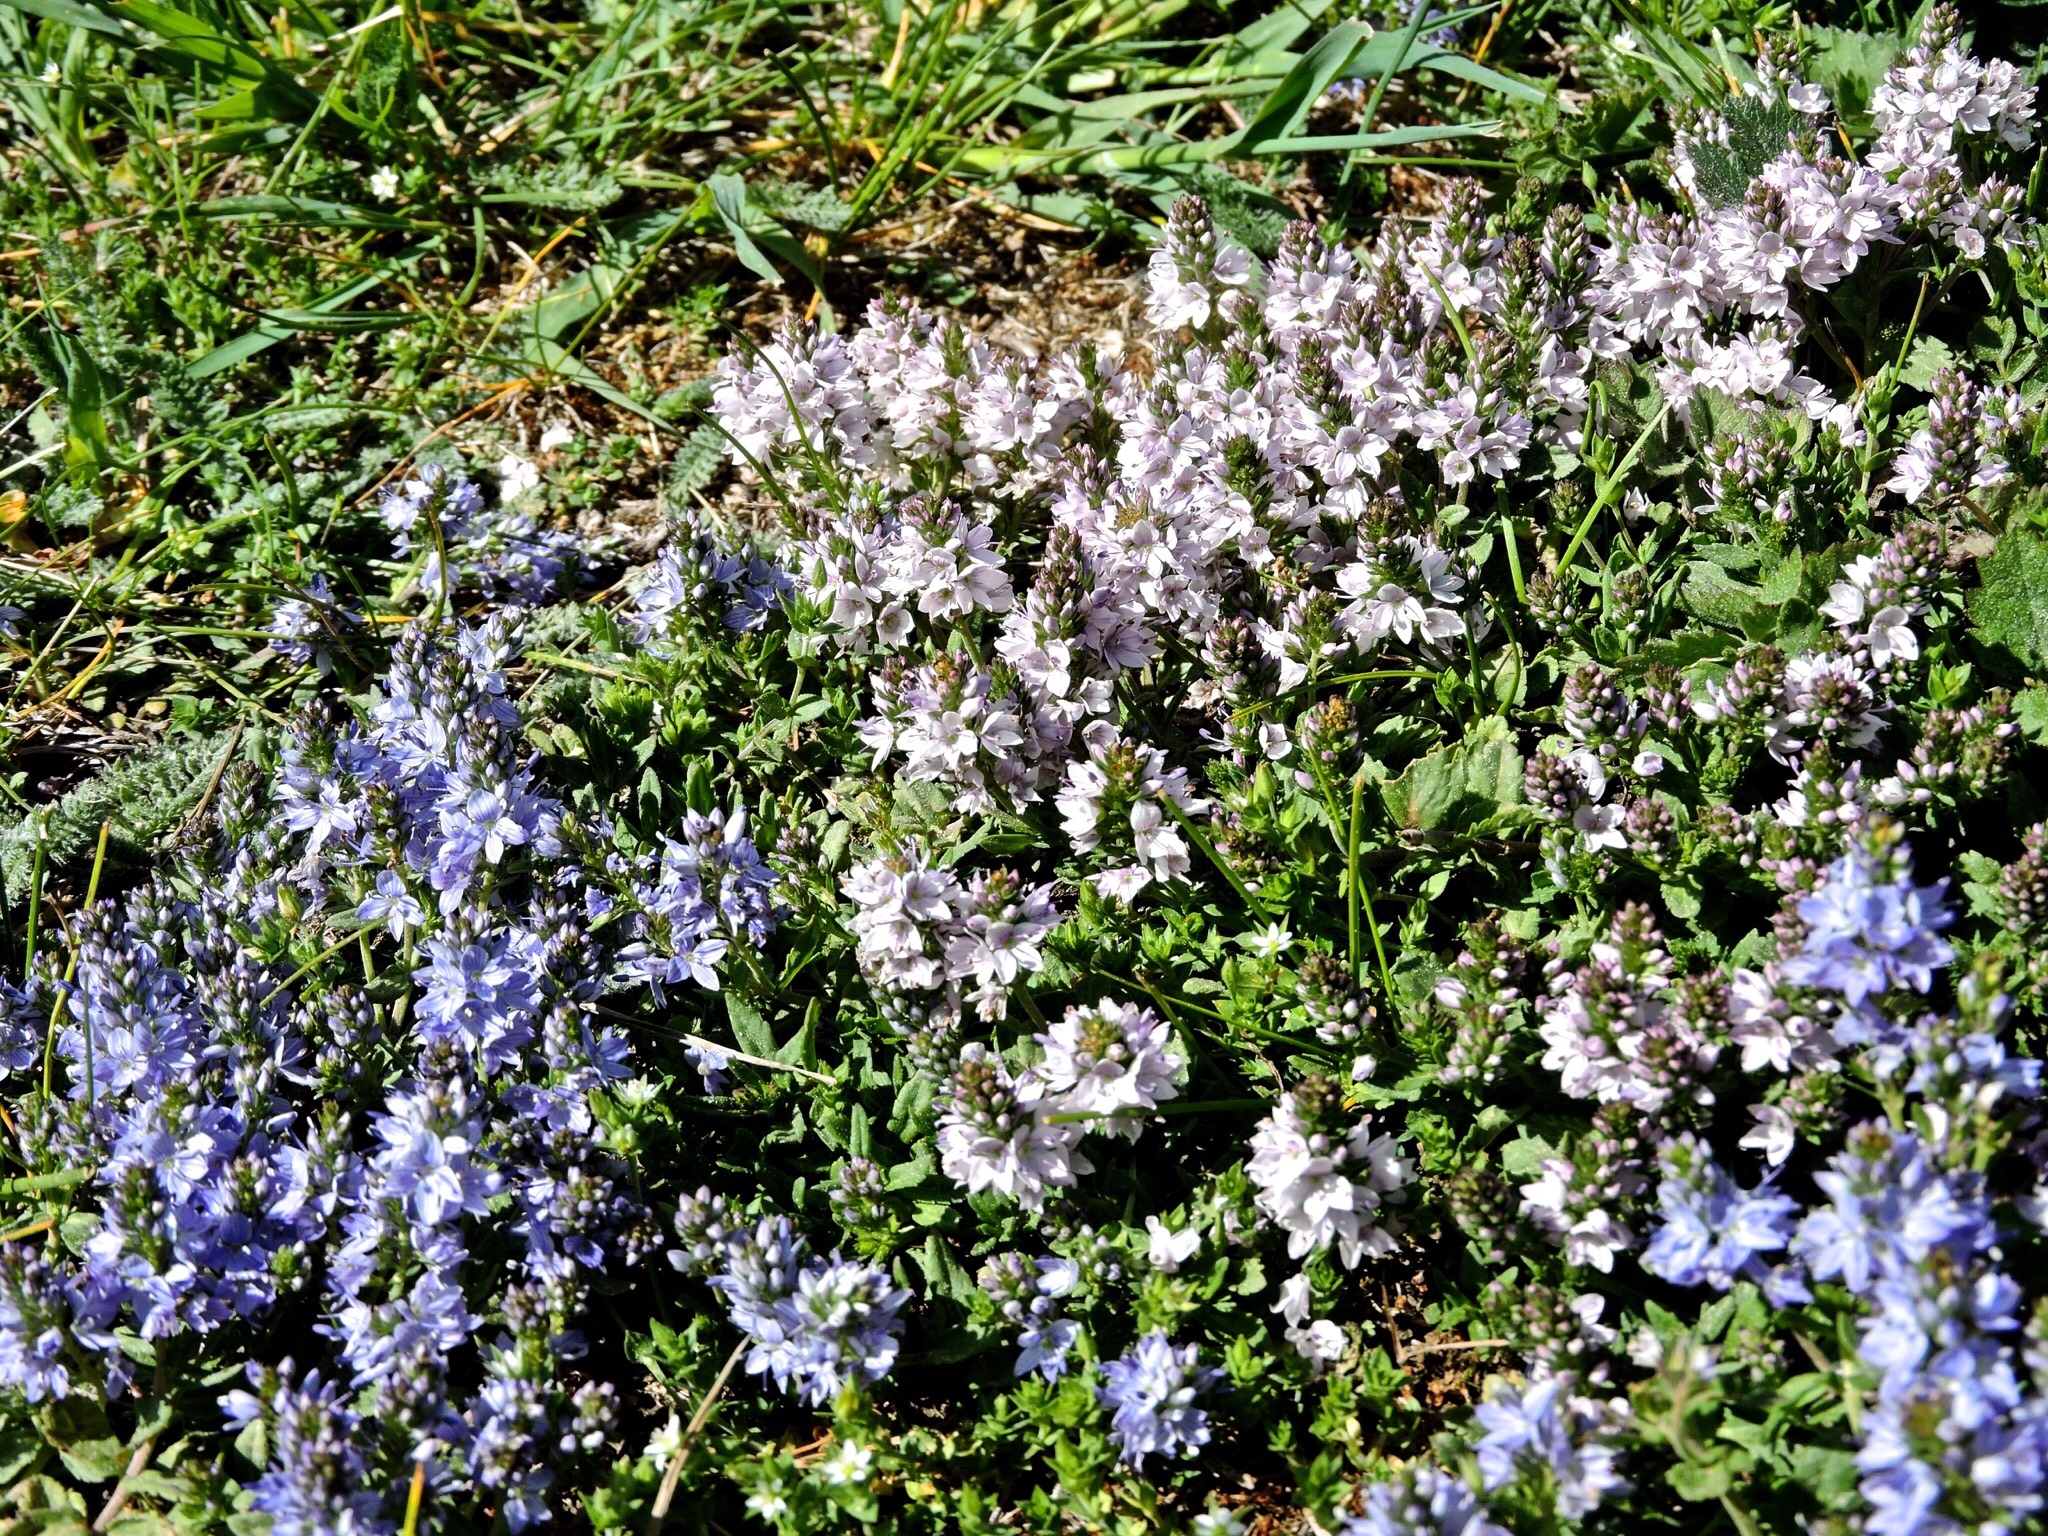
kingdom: Plantae
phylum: Tracheophyta
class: Magnoliopsida
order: Lamiales
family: Plantaginaceae
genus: Veronica
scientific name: Veronica prostrata
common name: Prostrate speedwell
